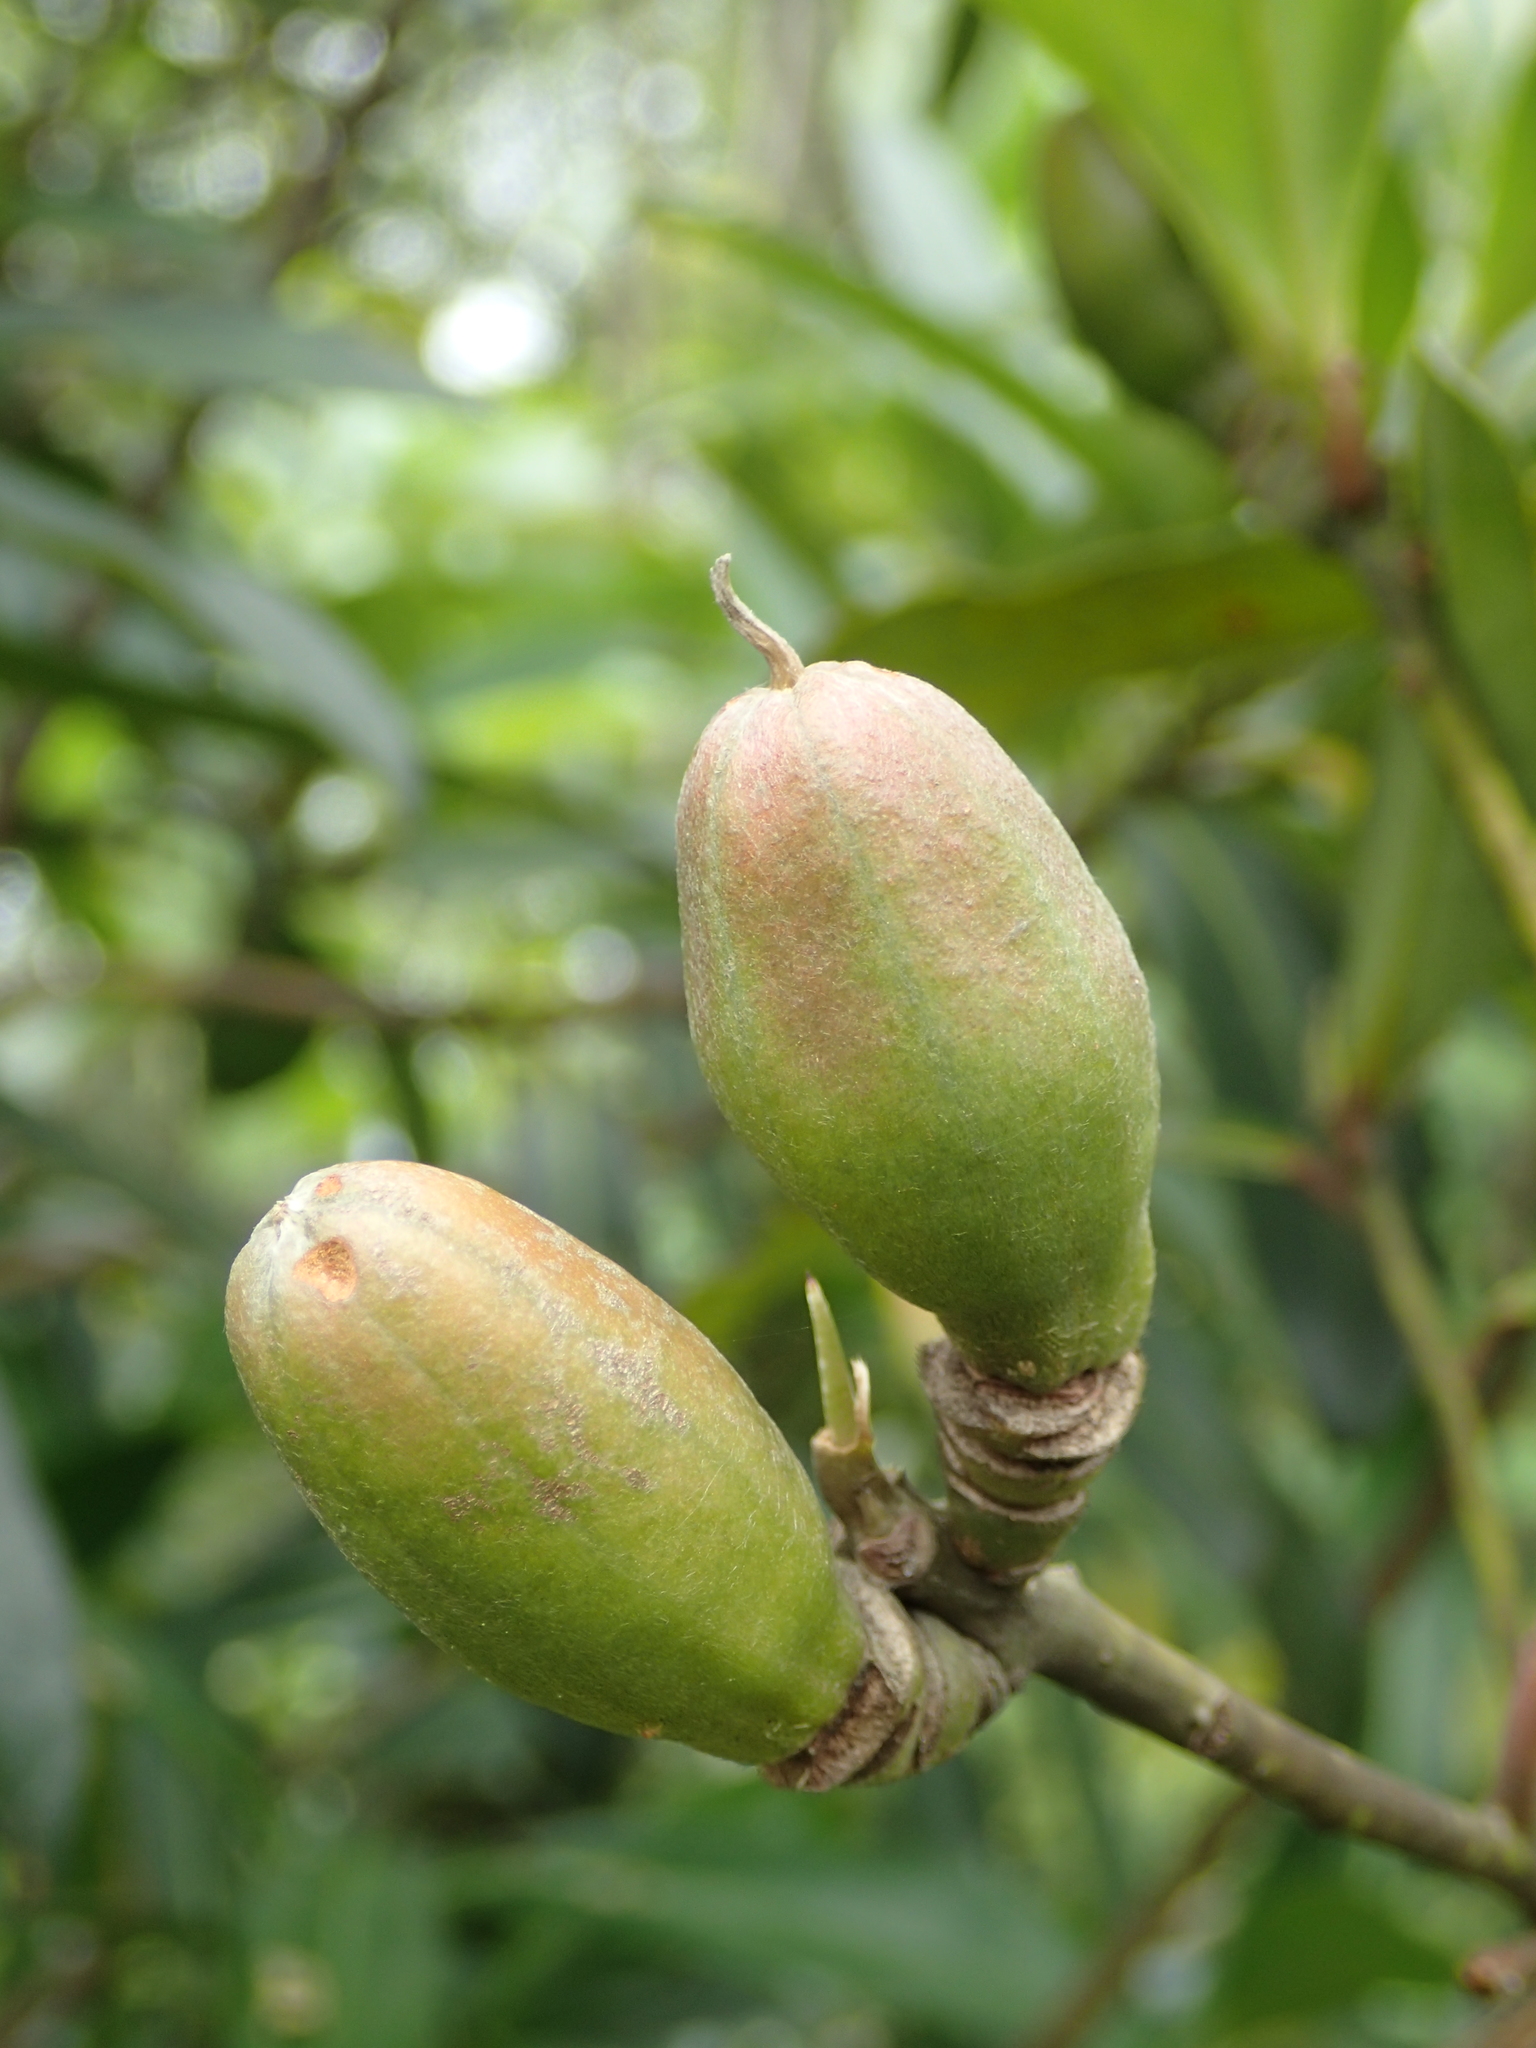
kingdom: Plantae
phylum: Tracheophyta
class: Magnoliopsida
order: Ericales
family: Theaceae
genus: Polyspora
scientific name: Polyspora axillaris
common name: Fried egg tree
